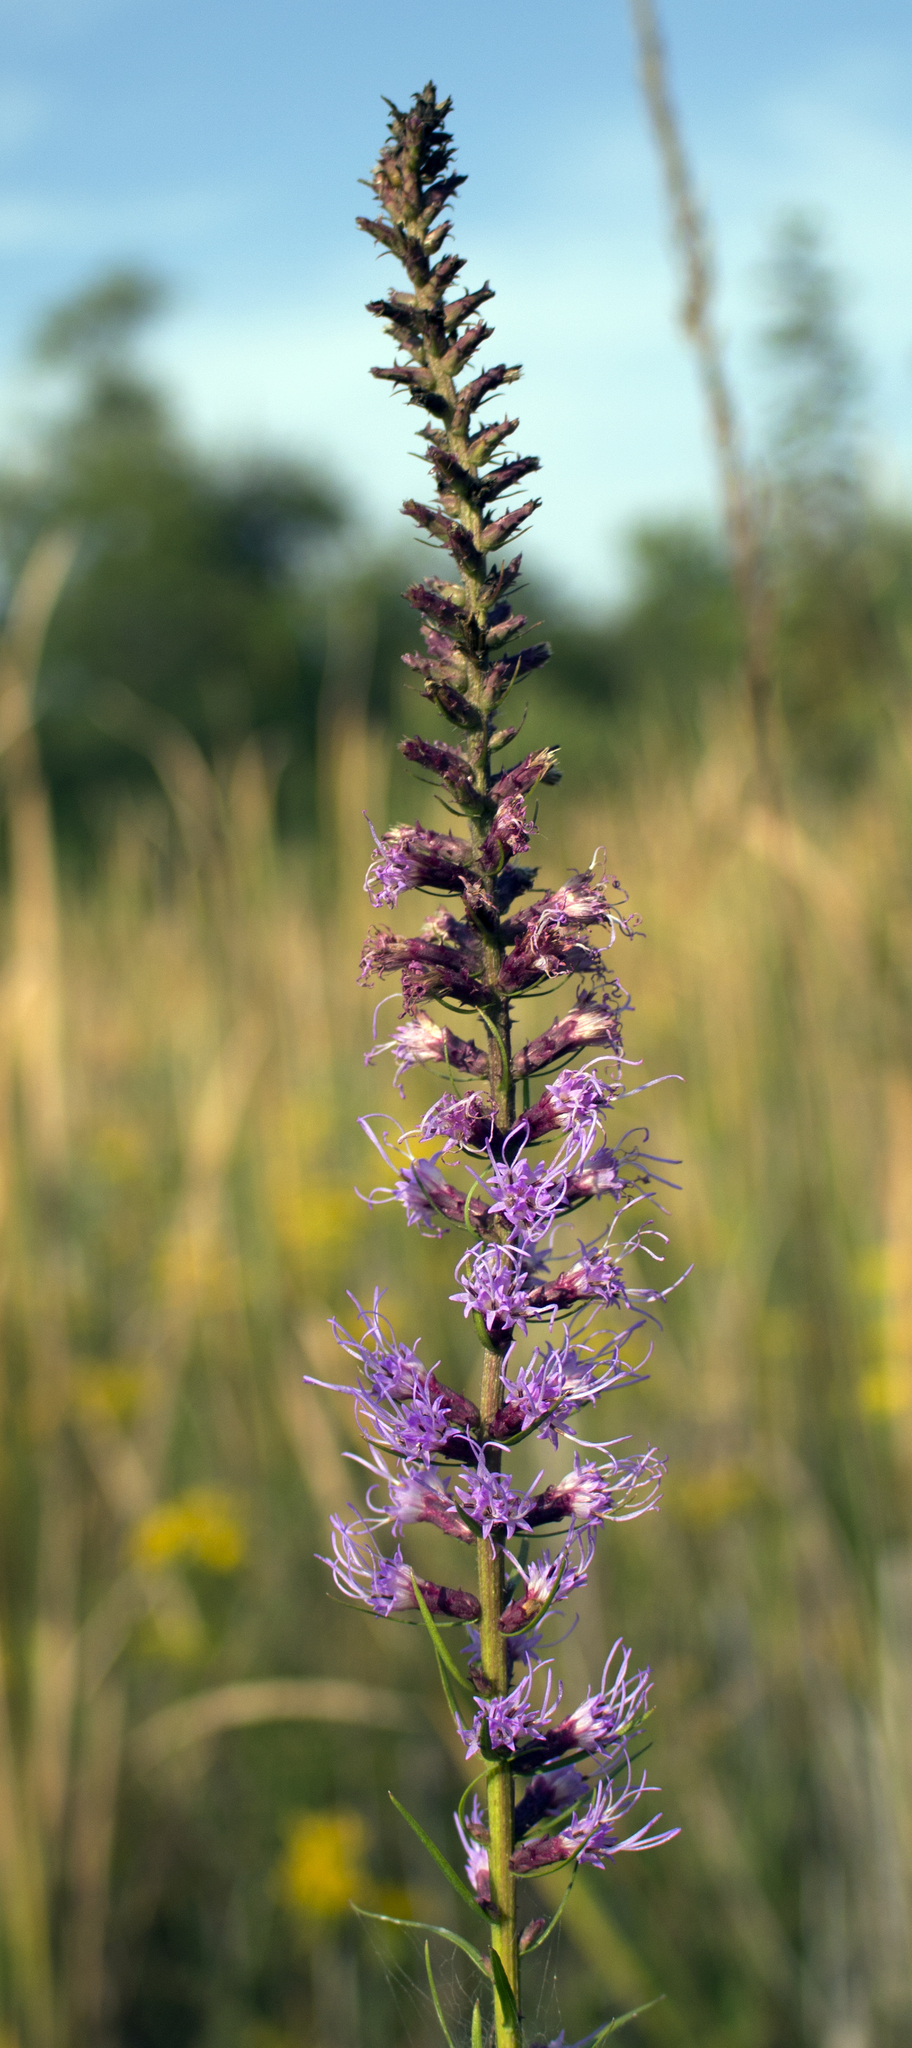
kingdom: Plantae
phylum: Tracheophyta
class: Magnoliopsida
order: Asterales
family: Asteraceae
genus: Liatris
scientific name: Liatris pycnostachya
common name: Cattail gayfeather
